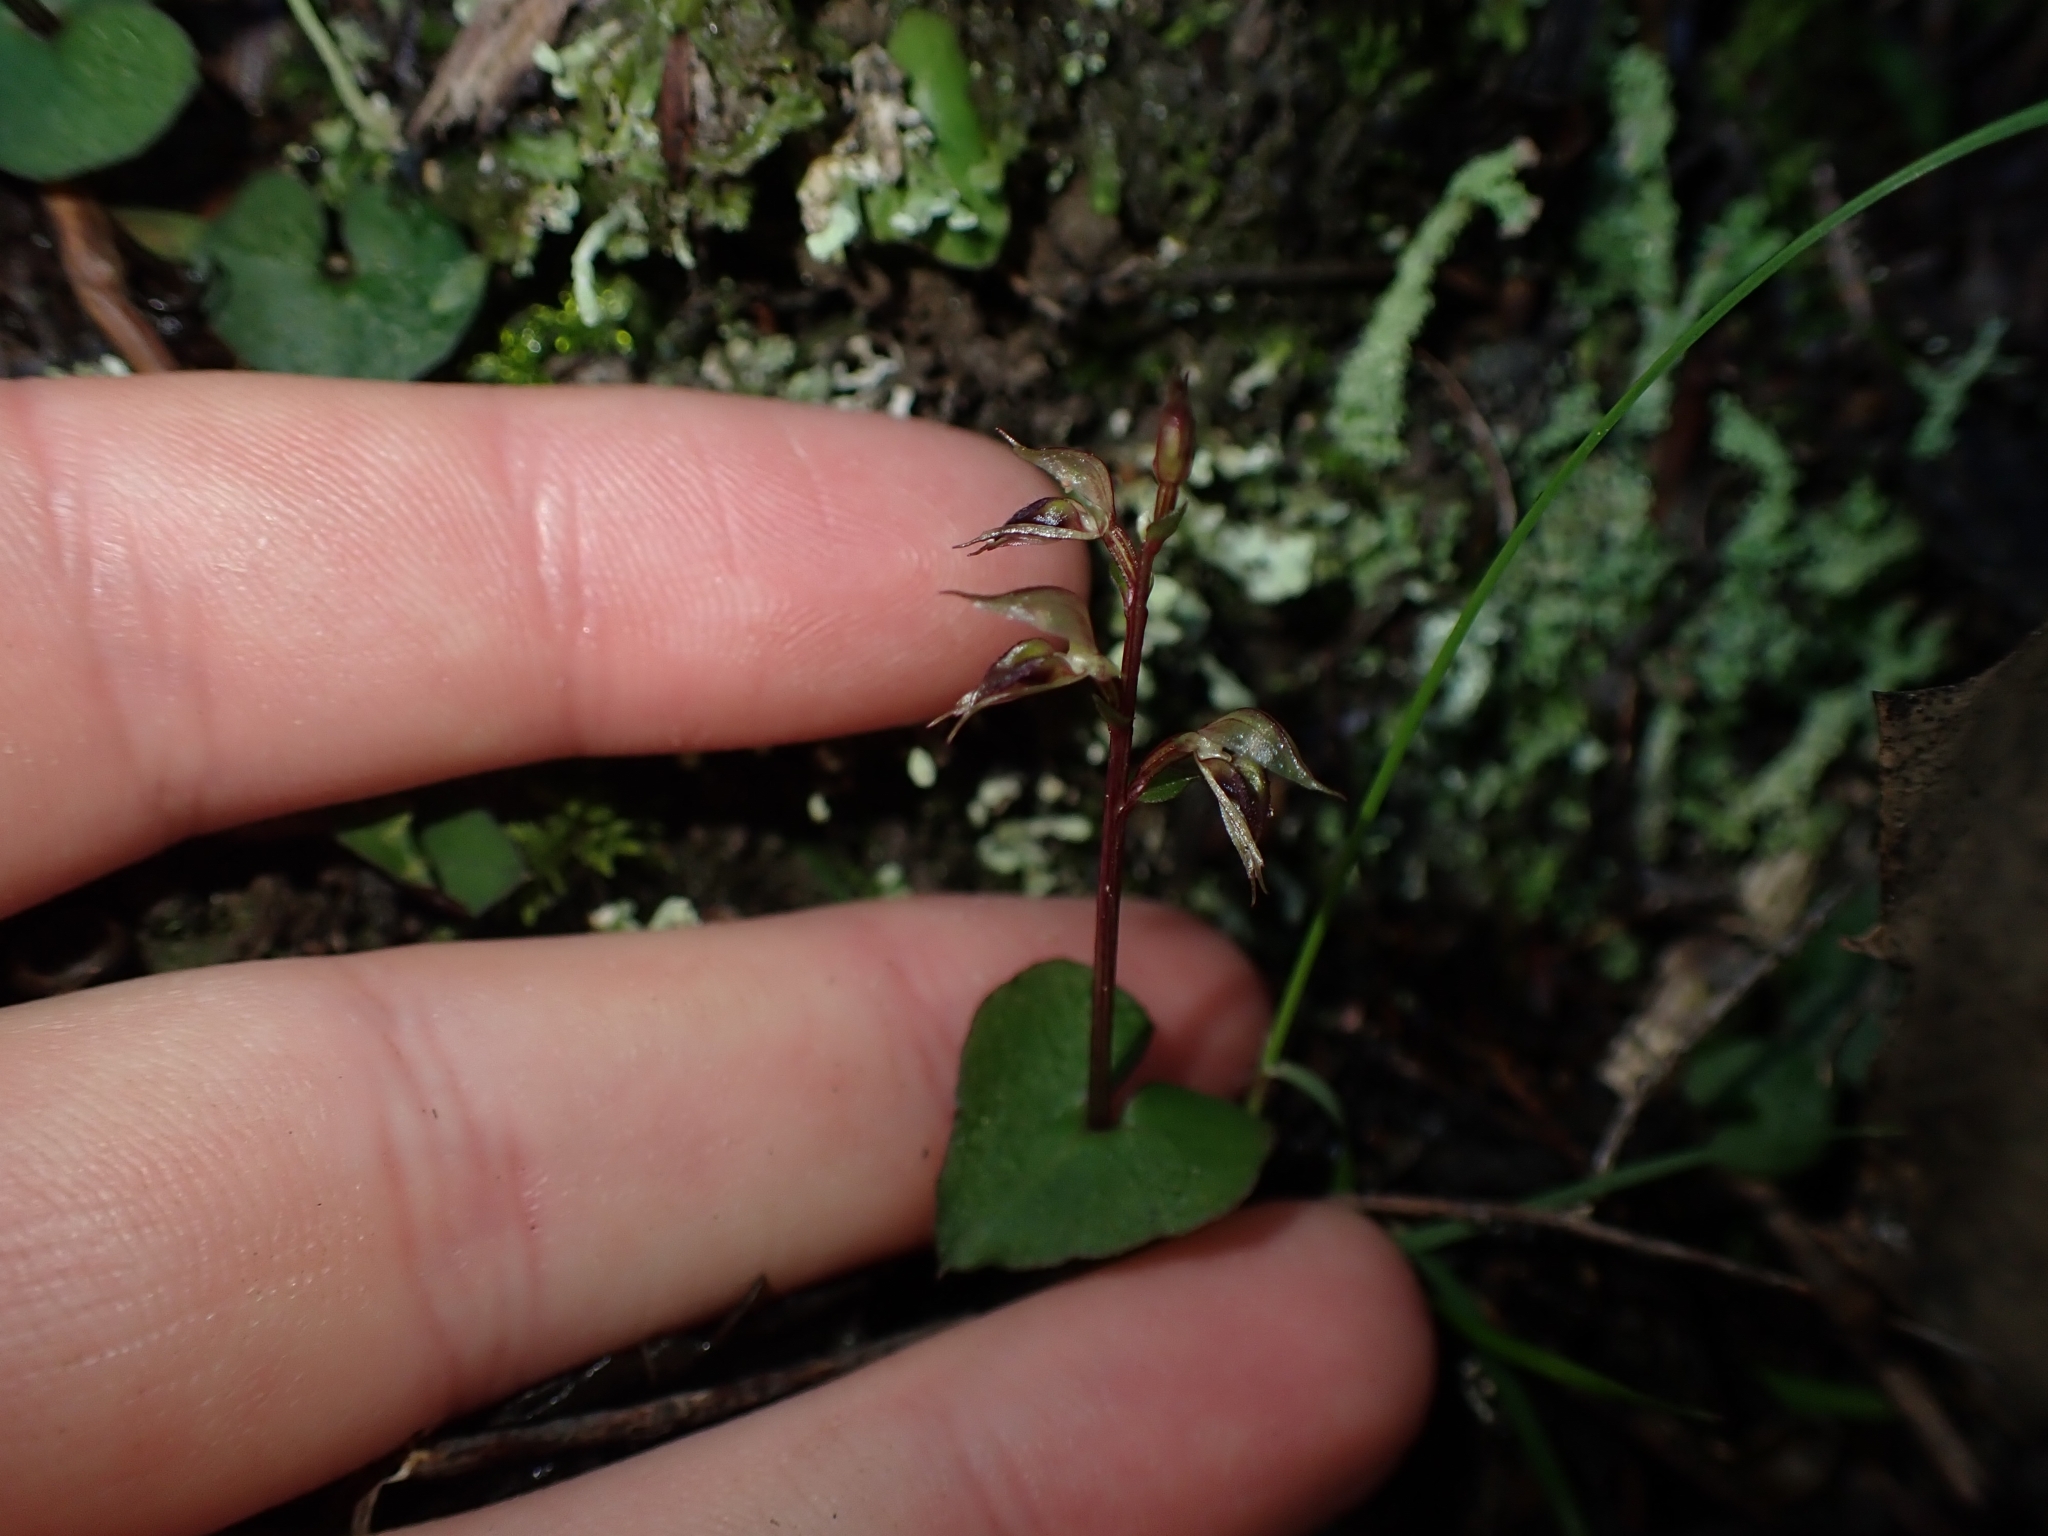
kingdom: Plantae
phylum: Tracheophyta
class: Liliopsida
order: Asparagales
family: Orchidaceae
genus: Acianthus
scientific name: Acianthus sinclairii
